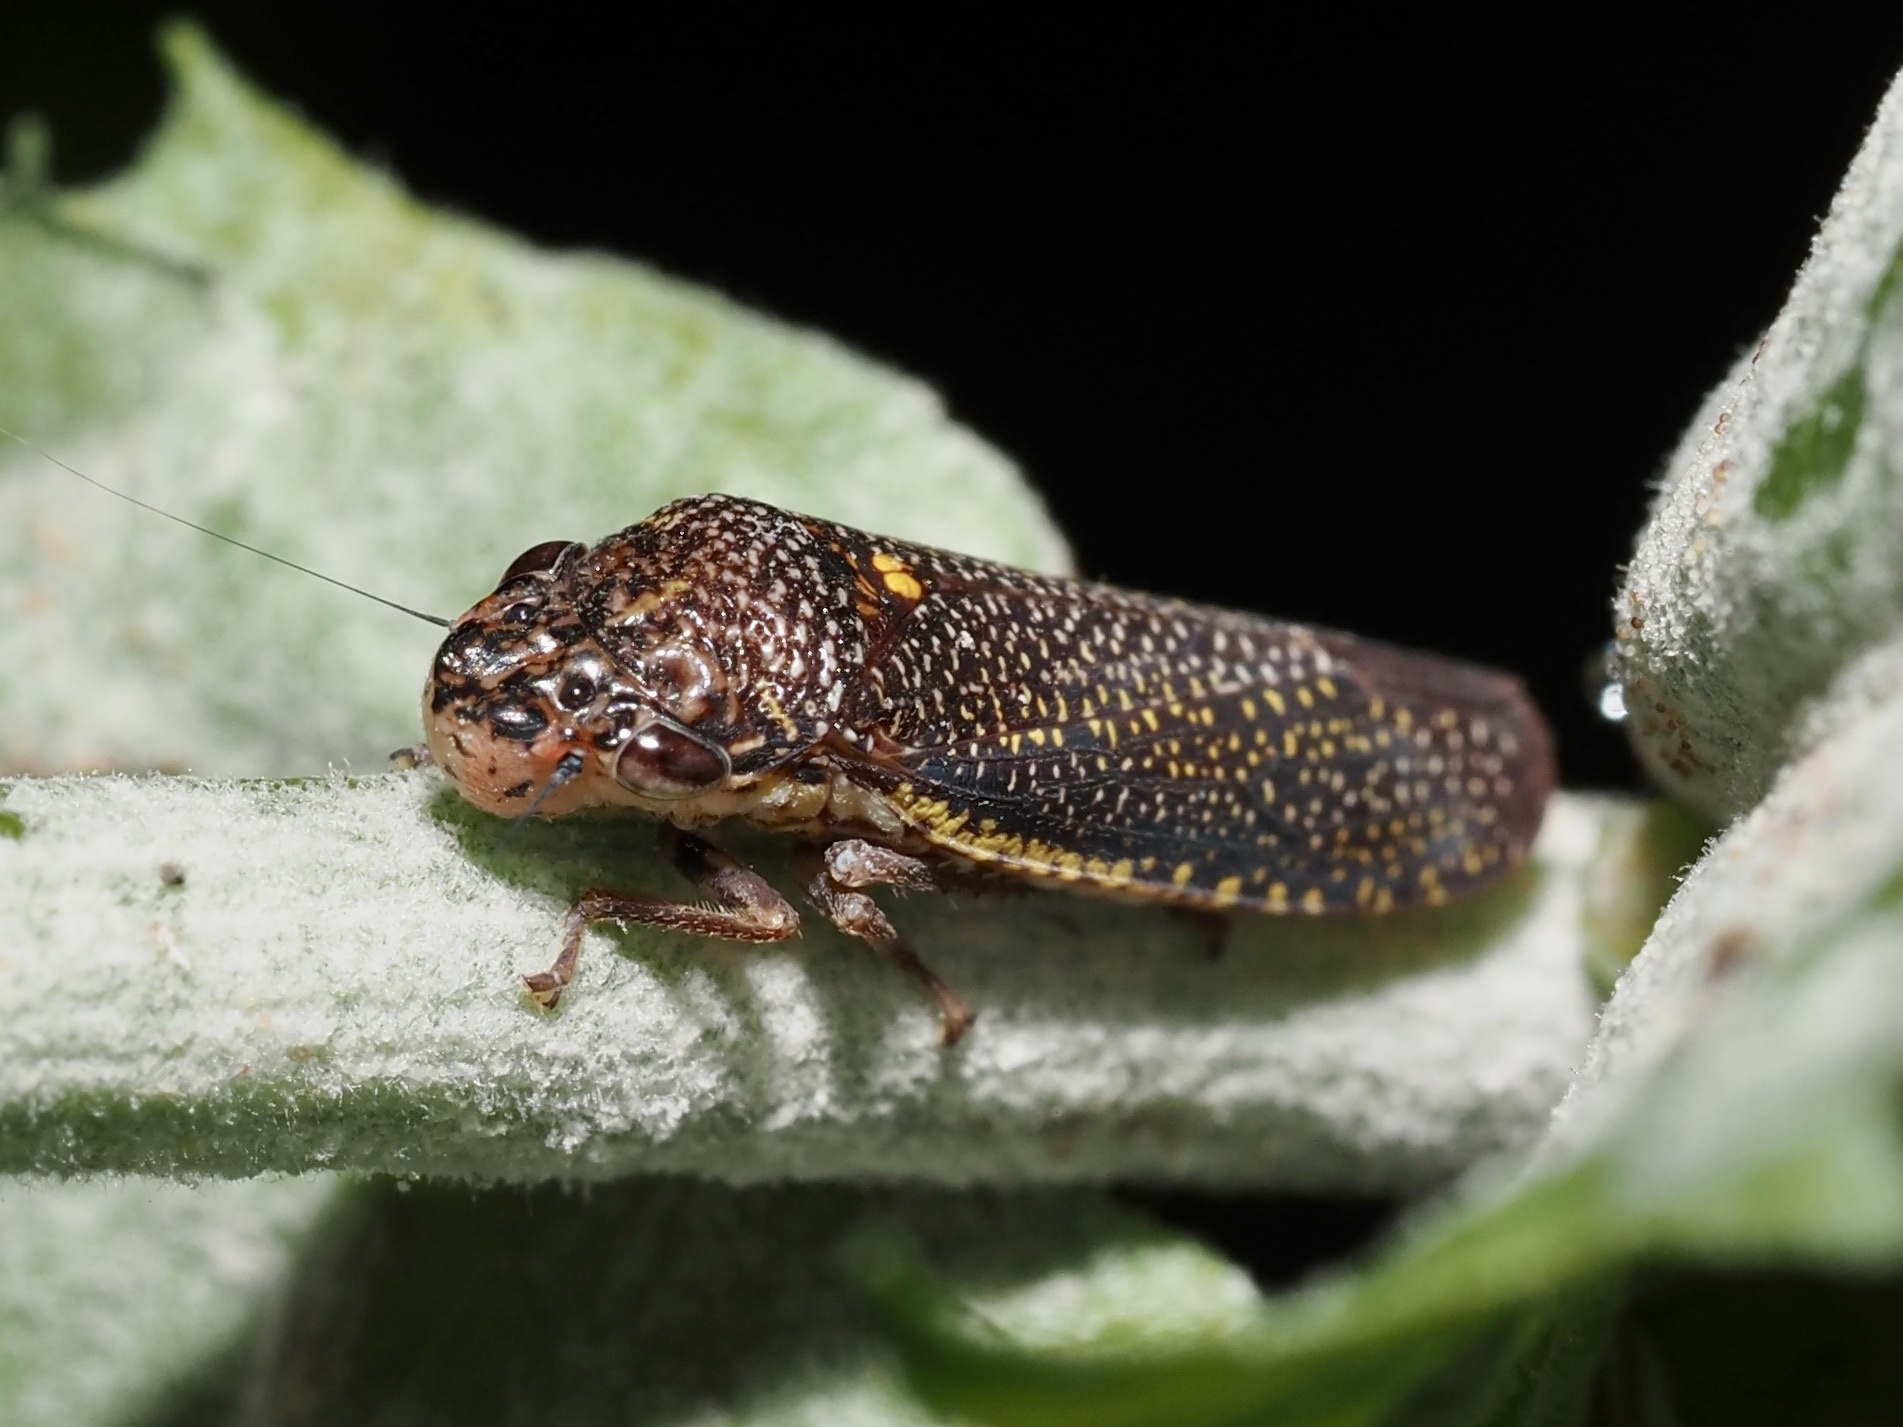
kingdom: Animalia
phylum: Arthropoda
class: Insecta
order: Hemiptera
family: Cicadellidae
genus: Paraulacizes
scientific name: Paraulacizes irrorata
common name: Speckled sharpshooter
